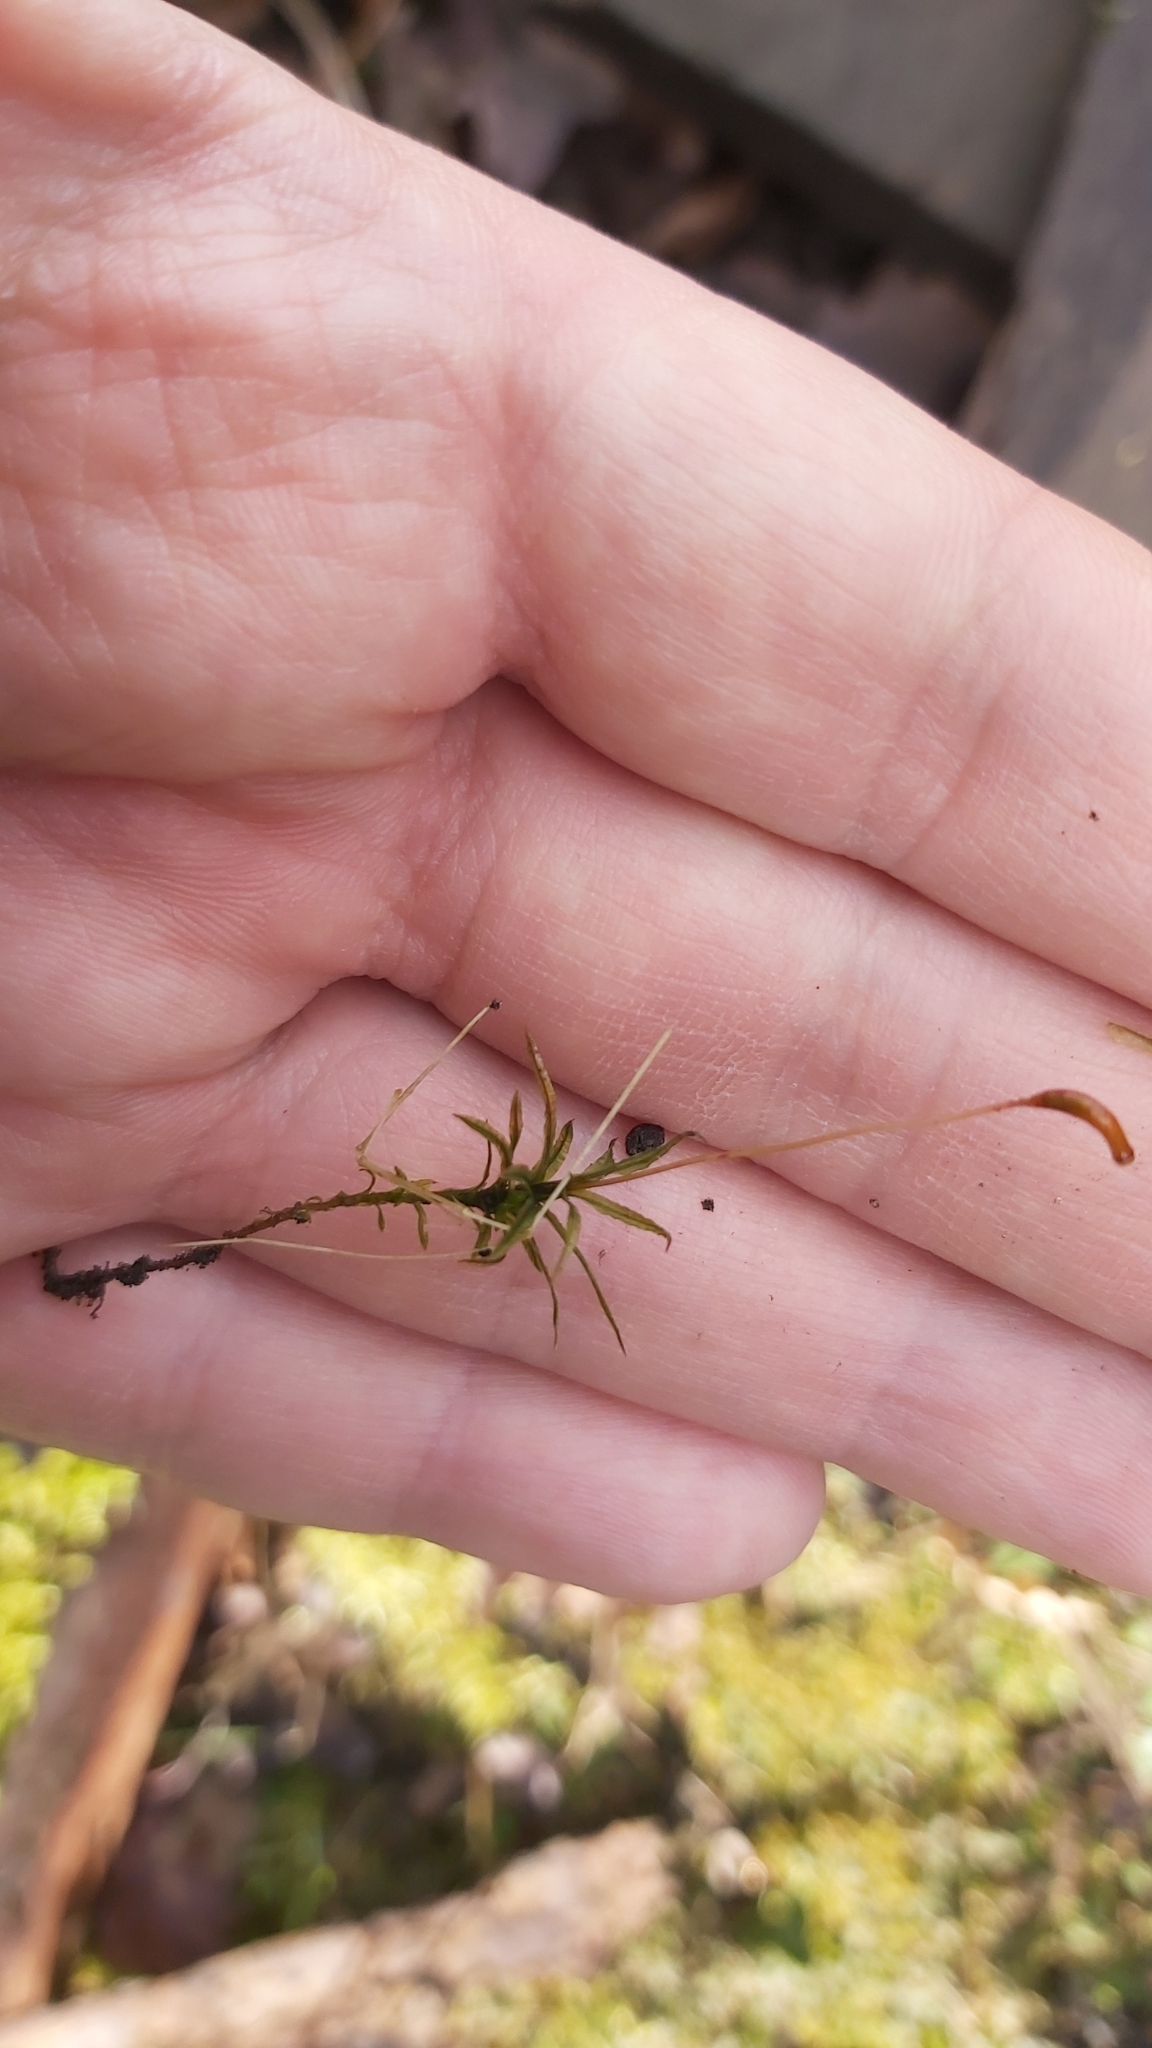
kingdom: Plantae
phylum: Bryophyta
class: Polytrichopsida
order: Polytrichales
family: Polytrichaceae
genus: Atrichum
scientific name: Atrichum undulatum
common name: Common smoothcap
